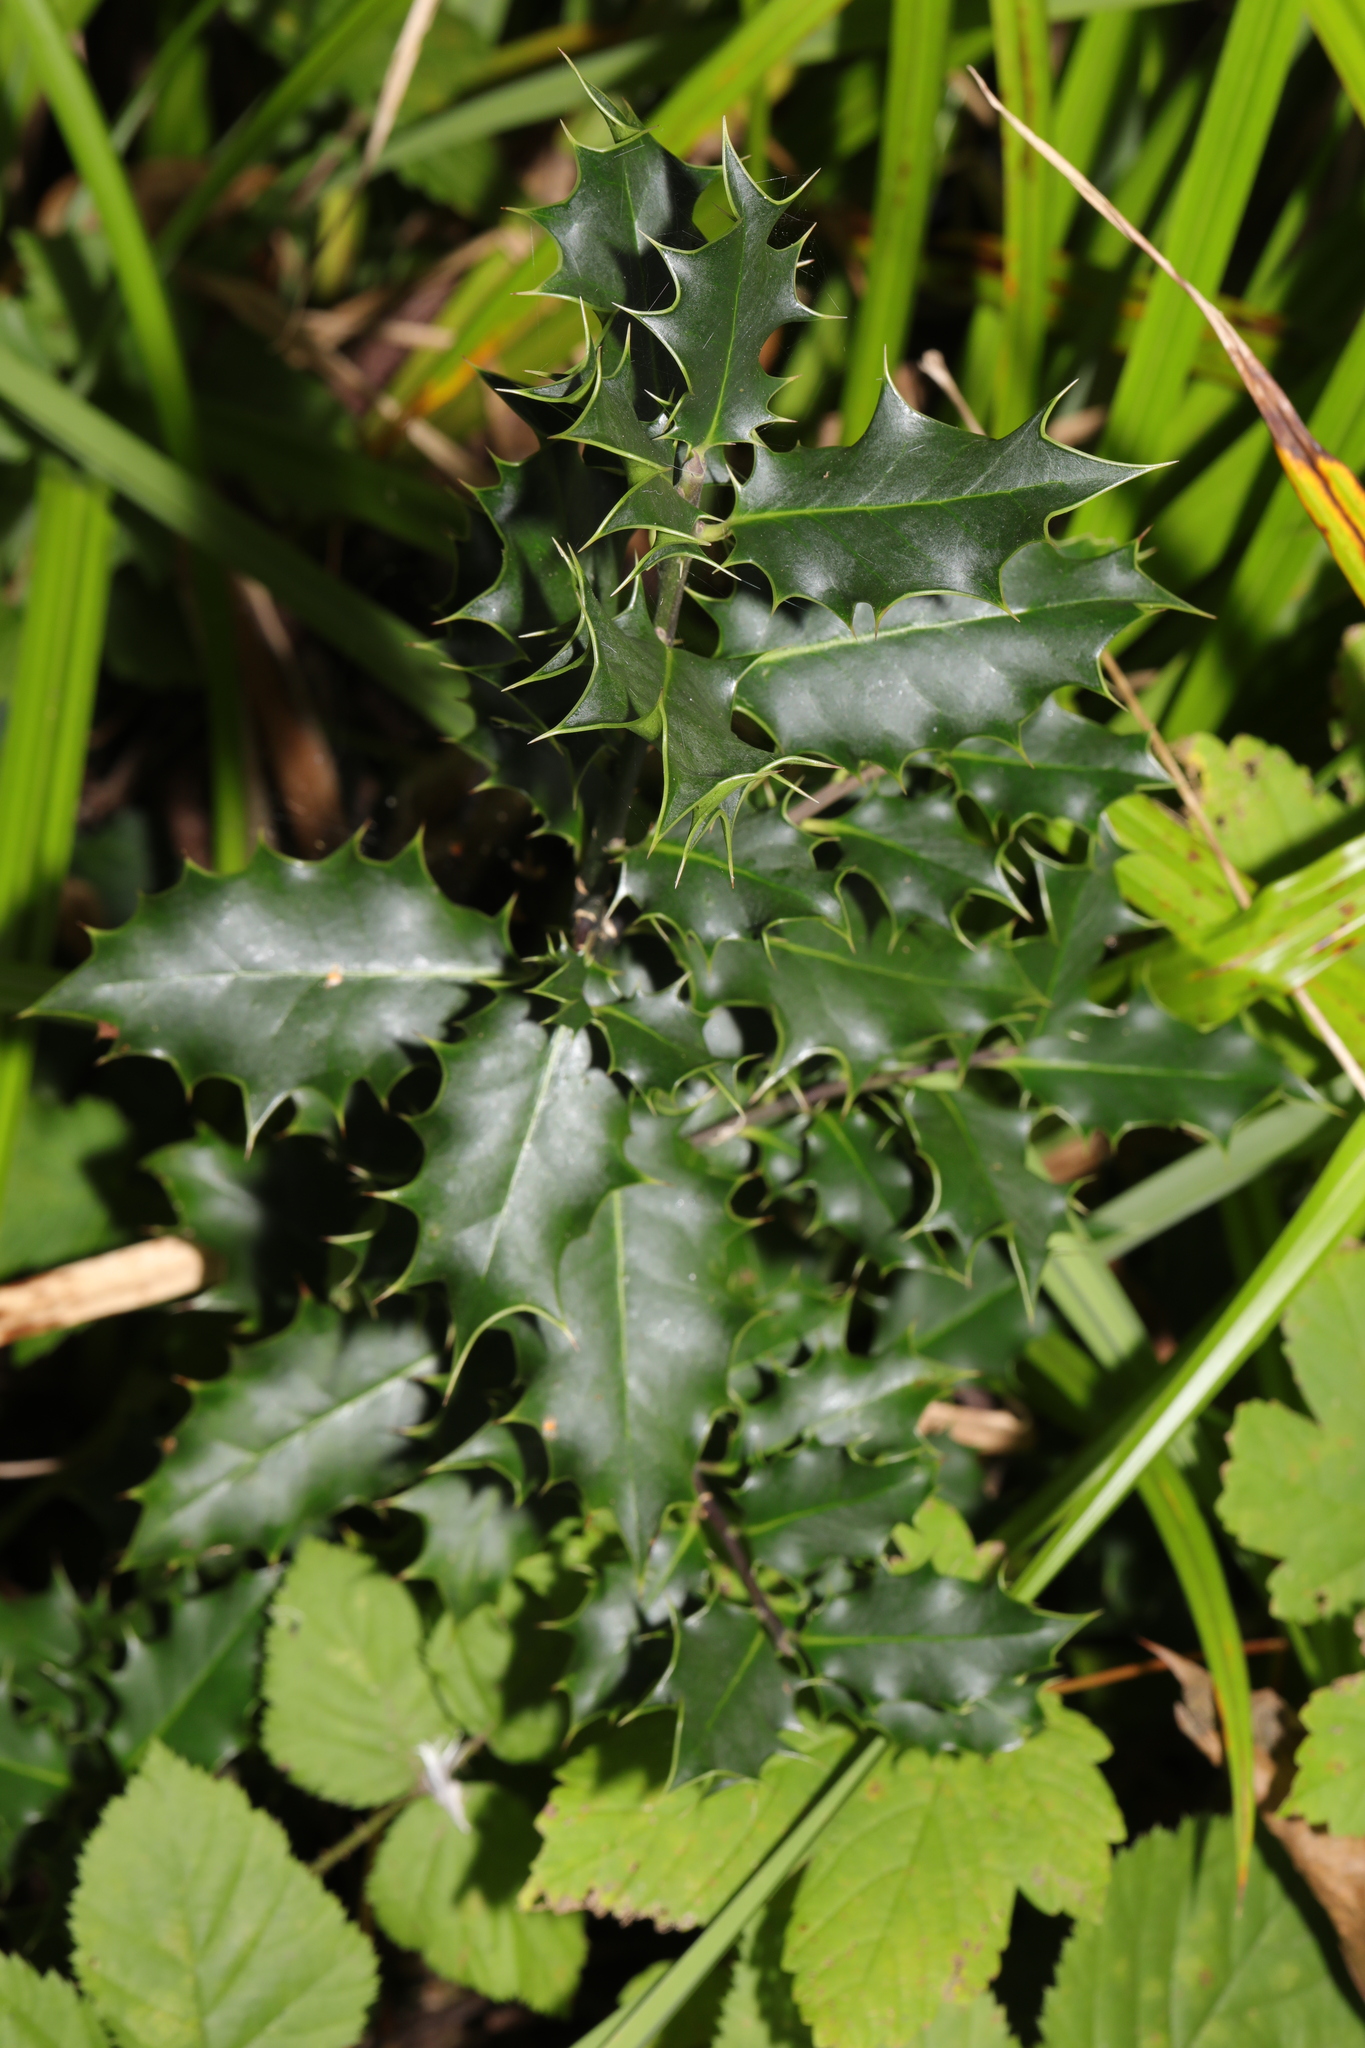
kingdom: Plantae
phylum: Tracheophyta
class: Magnoliopsida
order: Aquifoliales
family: Aquifoliaceae
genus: Ilex
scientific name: Ilex aquifolium
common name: English holly
